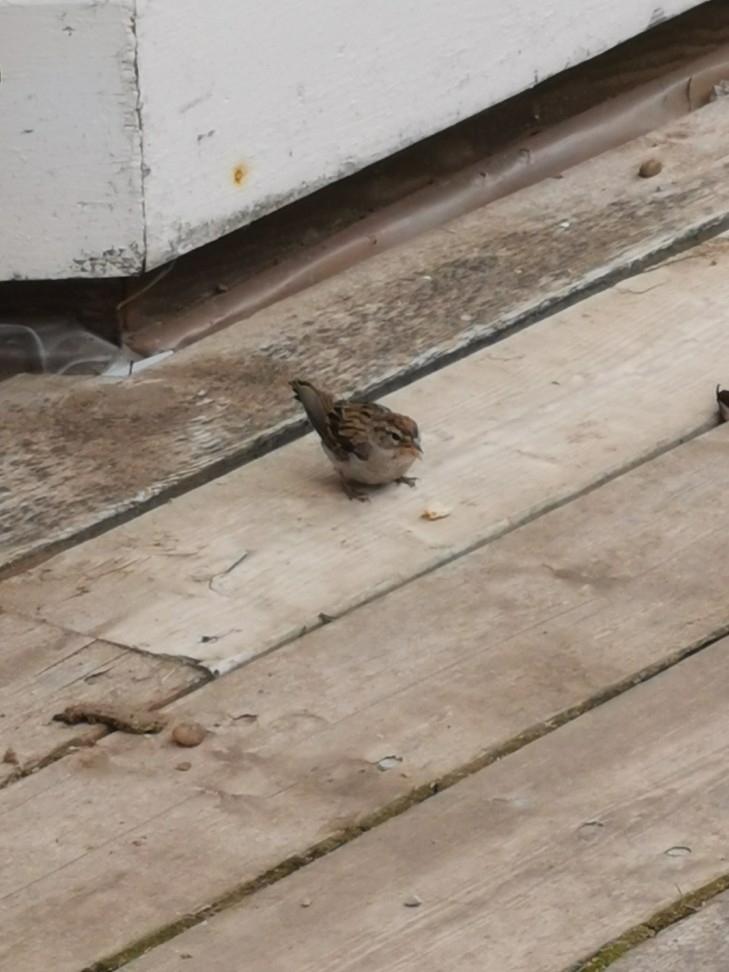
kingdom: Animalia
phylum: Chordata
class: Aves
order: Passeriformes
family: Passerellidae
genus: Spizella
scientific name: Spizella passerina
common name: Chipping sparrow
